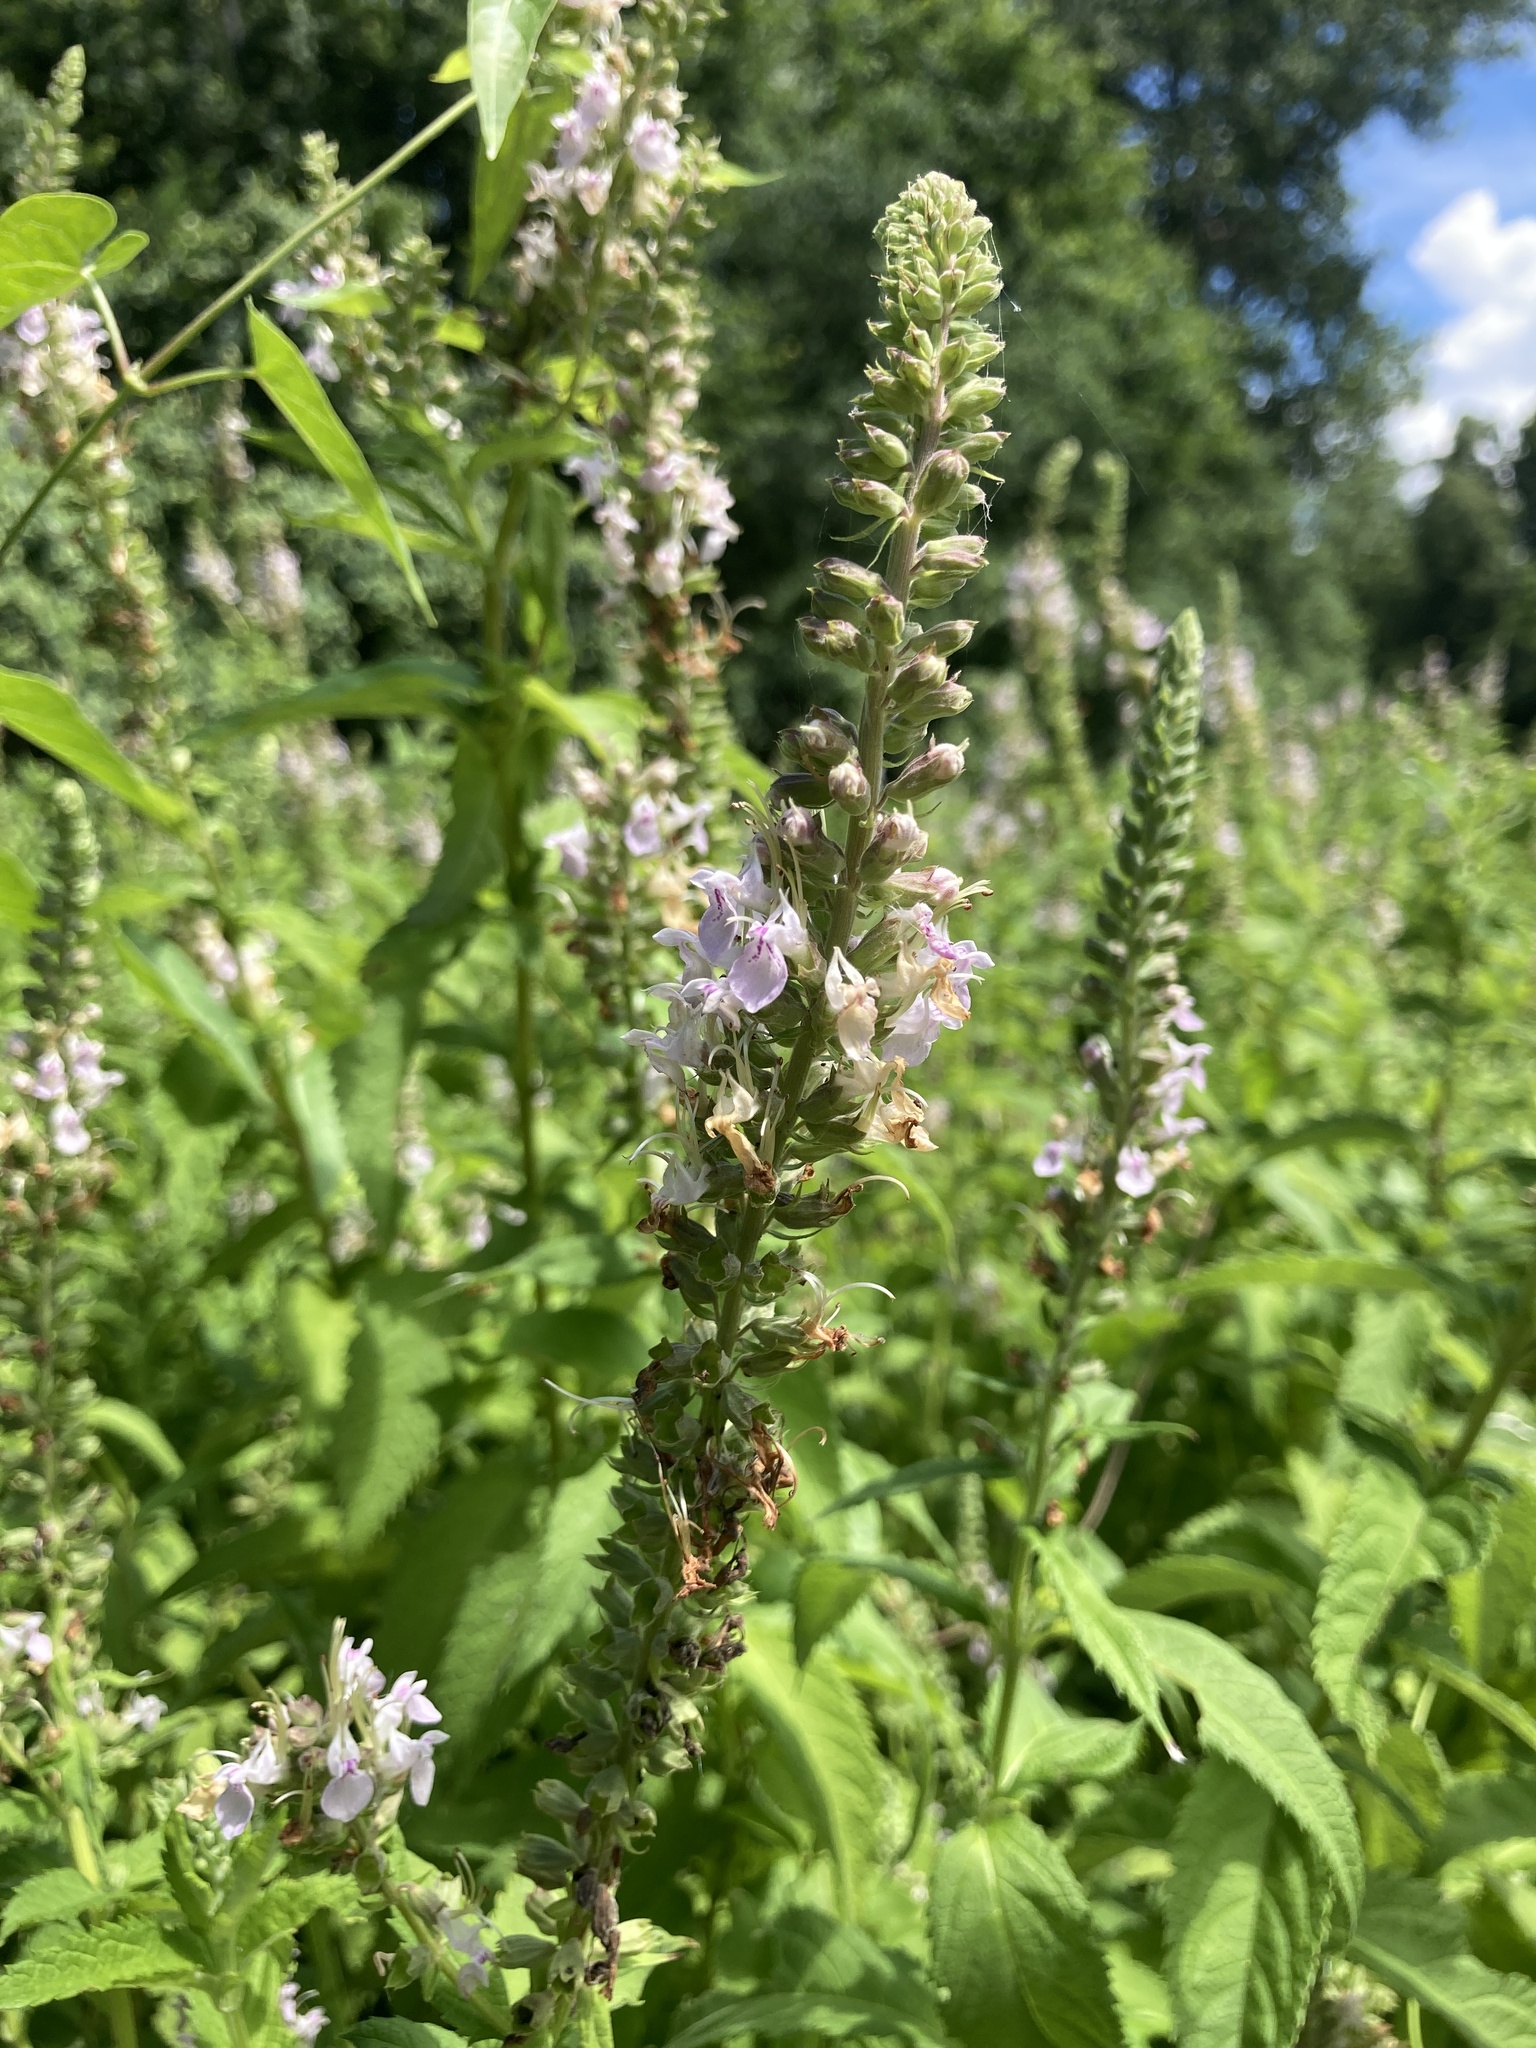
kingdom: Plantae
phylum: Tracheophyta
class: Magnoliopsida
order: Lamiales
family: Lamiaceae
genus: Teucrium
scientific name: Teucrium canadense
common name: American germander
